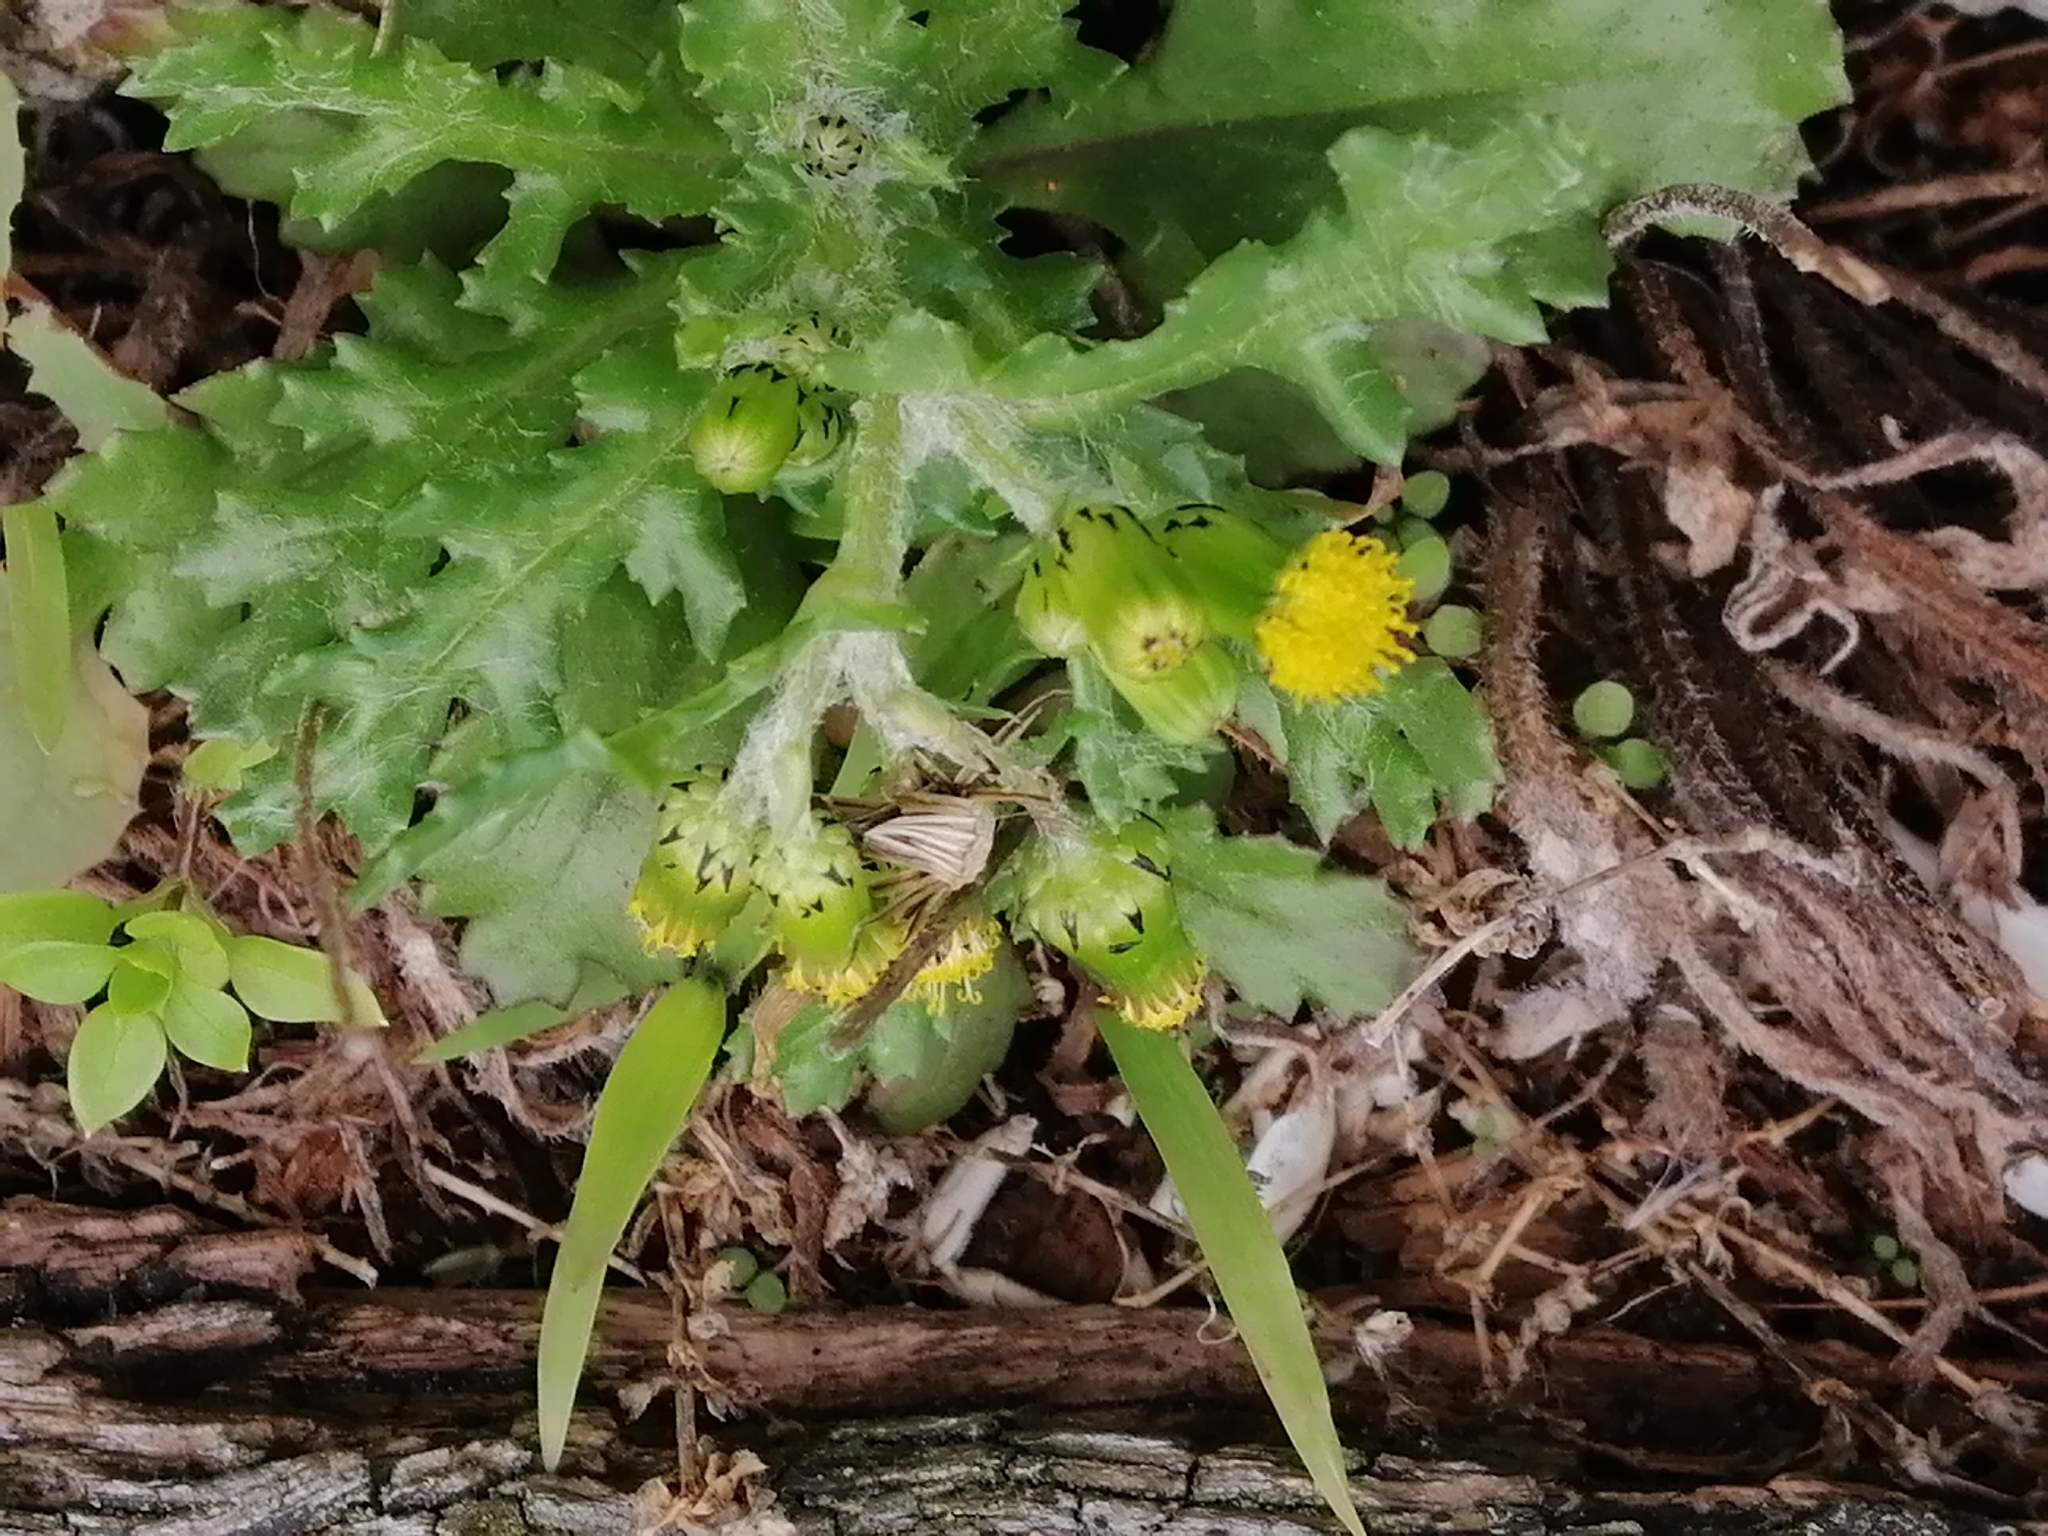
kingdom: Plantae
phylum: Tracheophyta
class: Magnoliopsida
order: Asterales
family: Asteraceae
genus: Senecio
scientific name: Senecio vulgaris
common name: Old-man-in-the-spring
